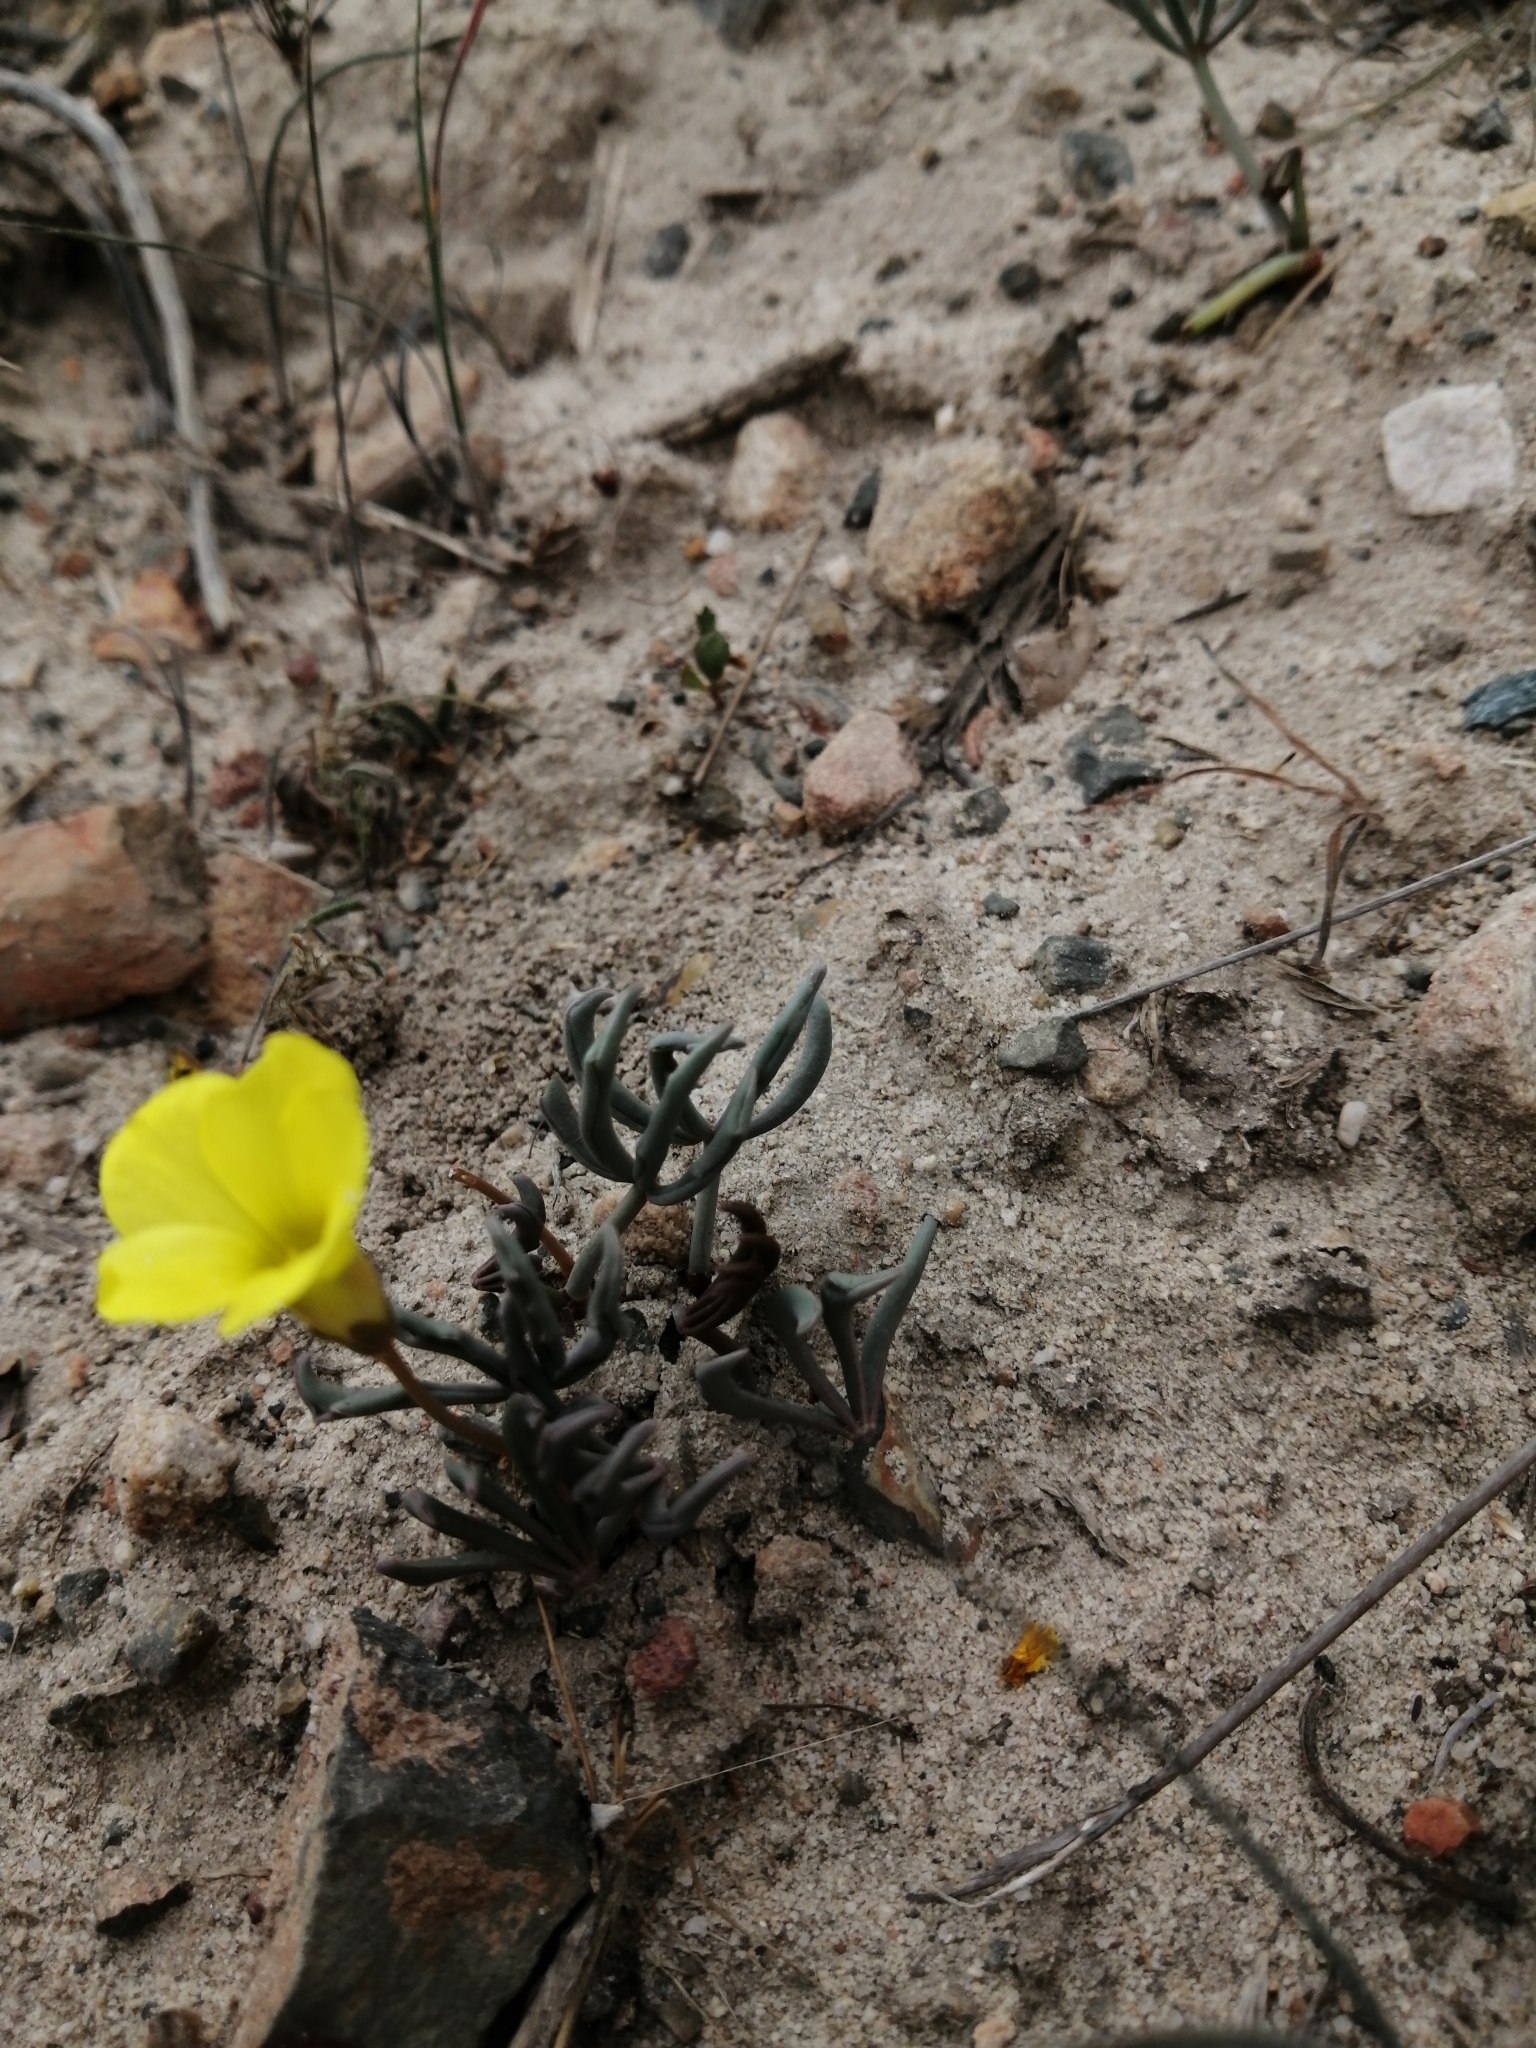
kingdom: Plantae
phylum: Tracheophyta
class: Magnoliopsida
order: Oxalidales
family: Oxalidaceae
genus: Oxalis
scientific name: Oxalis flava
